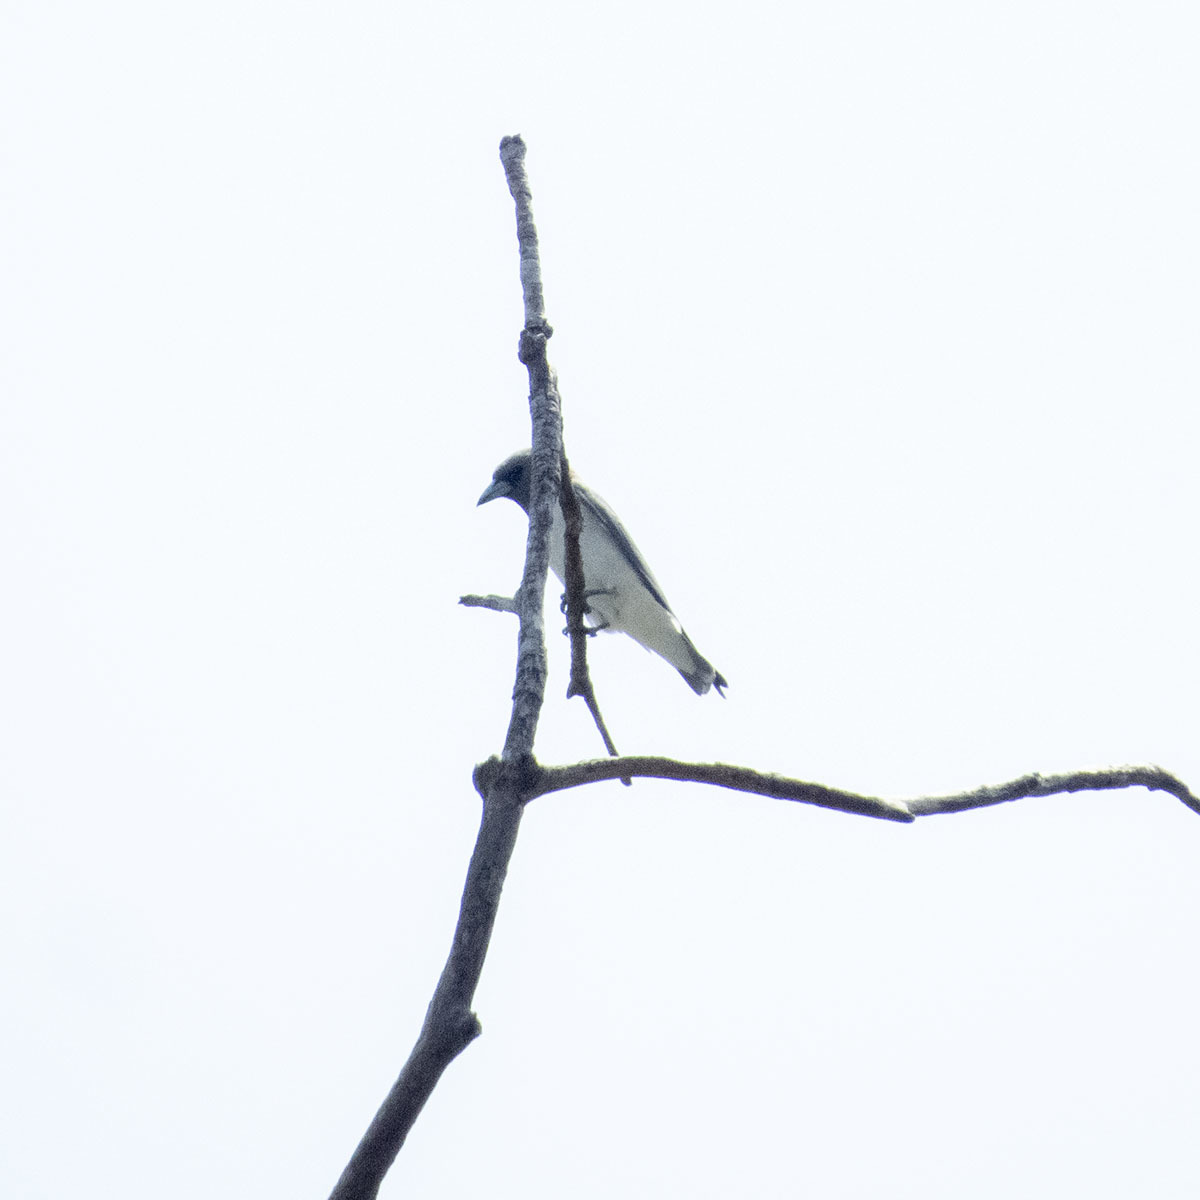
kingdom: Animalia
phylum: Chordata
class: Aves
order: Passeriformes
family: Artamidae
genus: Artamus
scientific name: Artamus leucoryn
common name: White-breasted woodswallow
